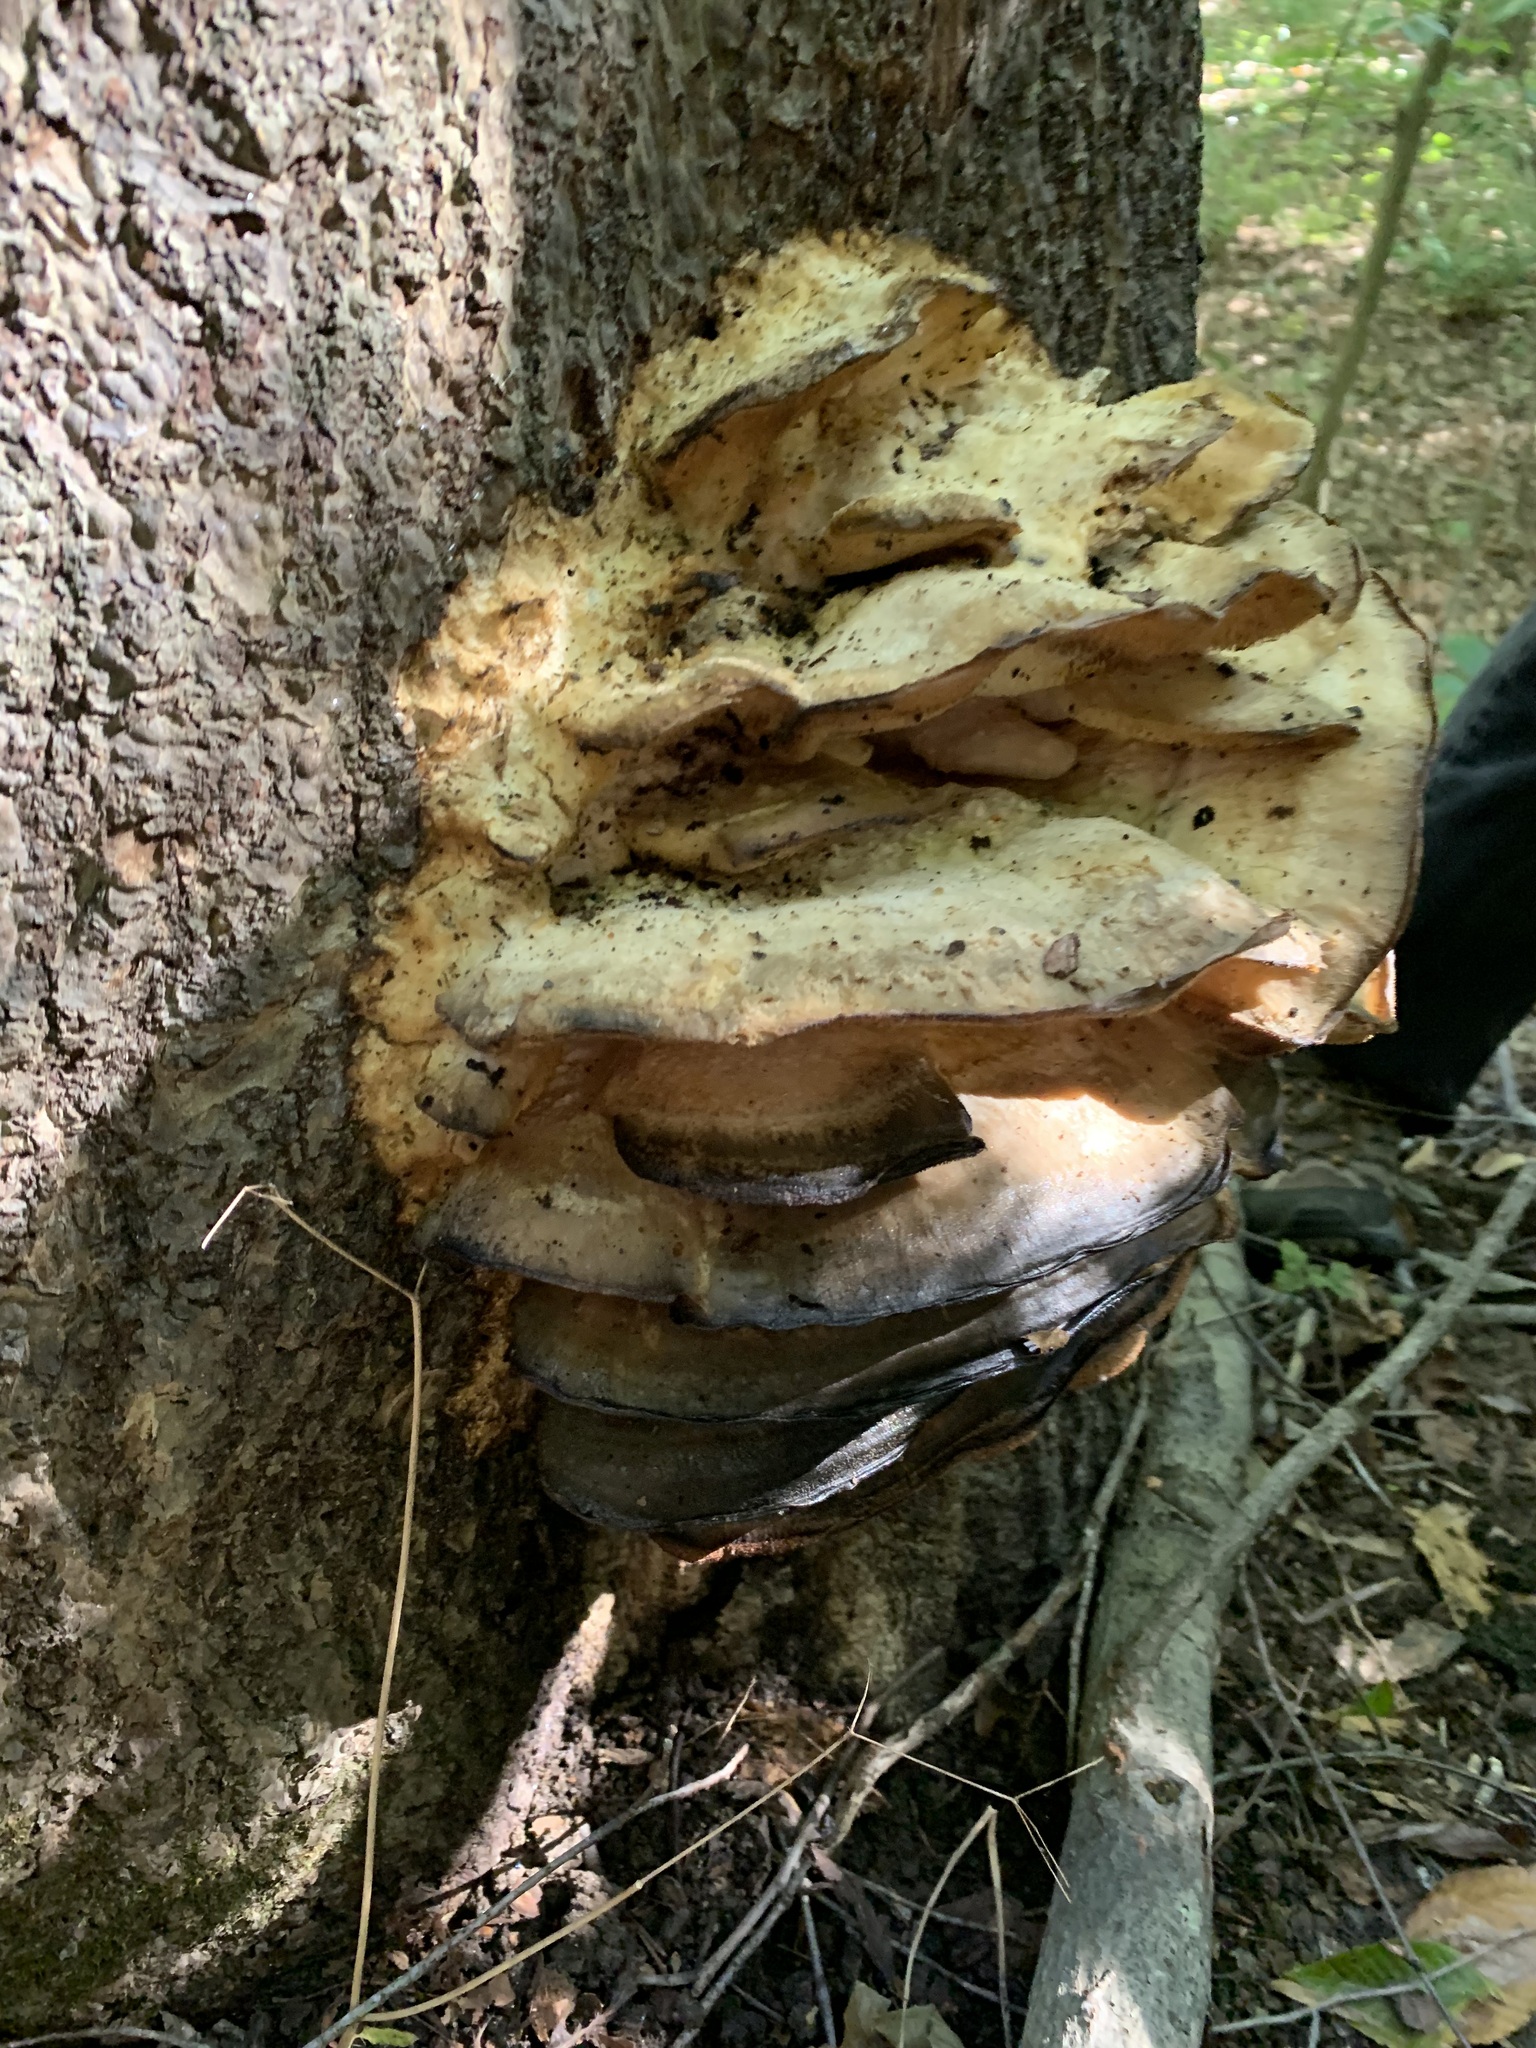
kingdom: Fungi
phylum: Basidiomycota
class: Agaricomycetes
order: Polyporales
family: Meruliaceae
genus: Climacodon
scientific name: Climacodon septentrionalis
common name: Northern tooth
